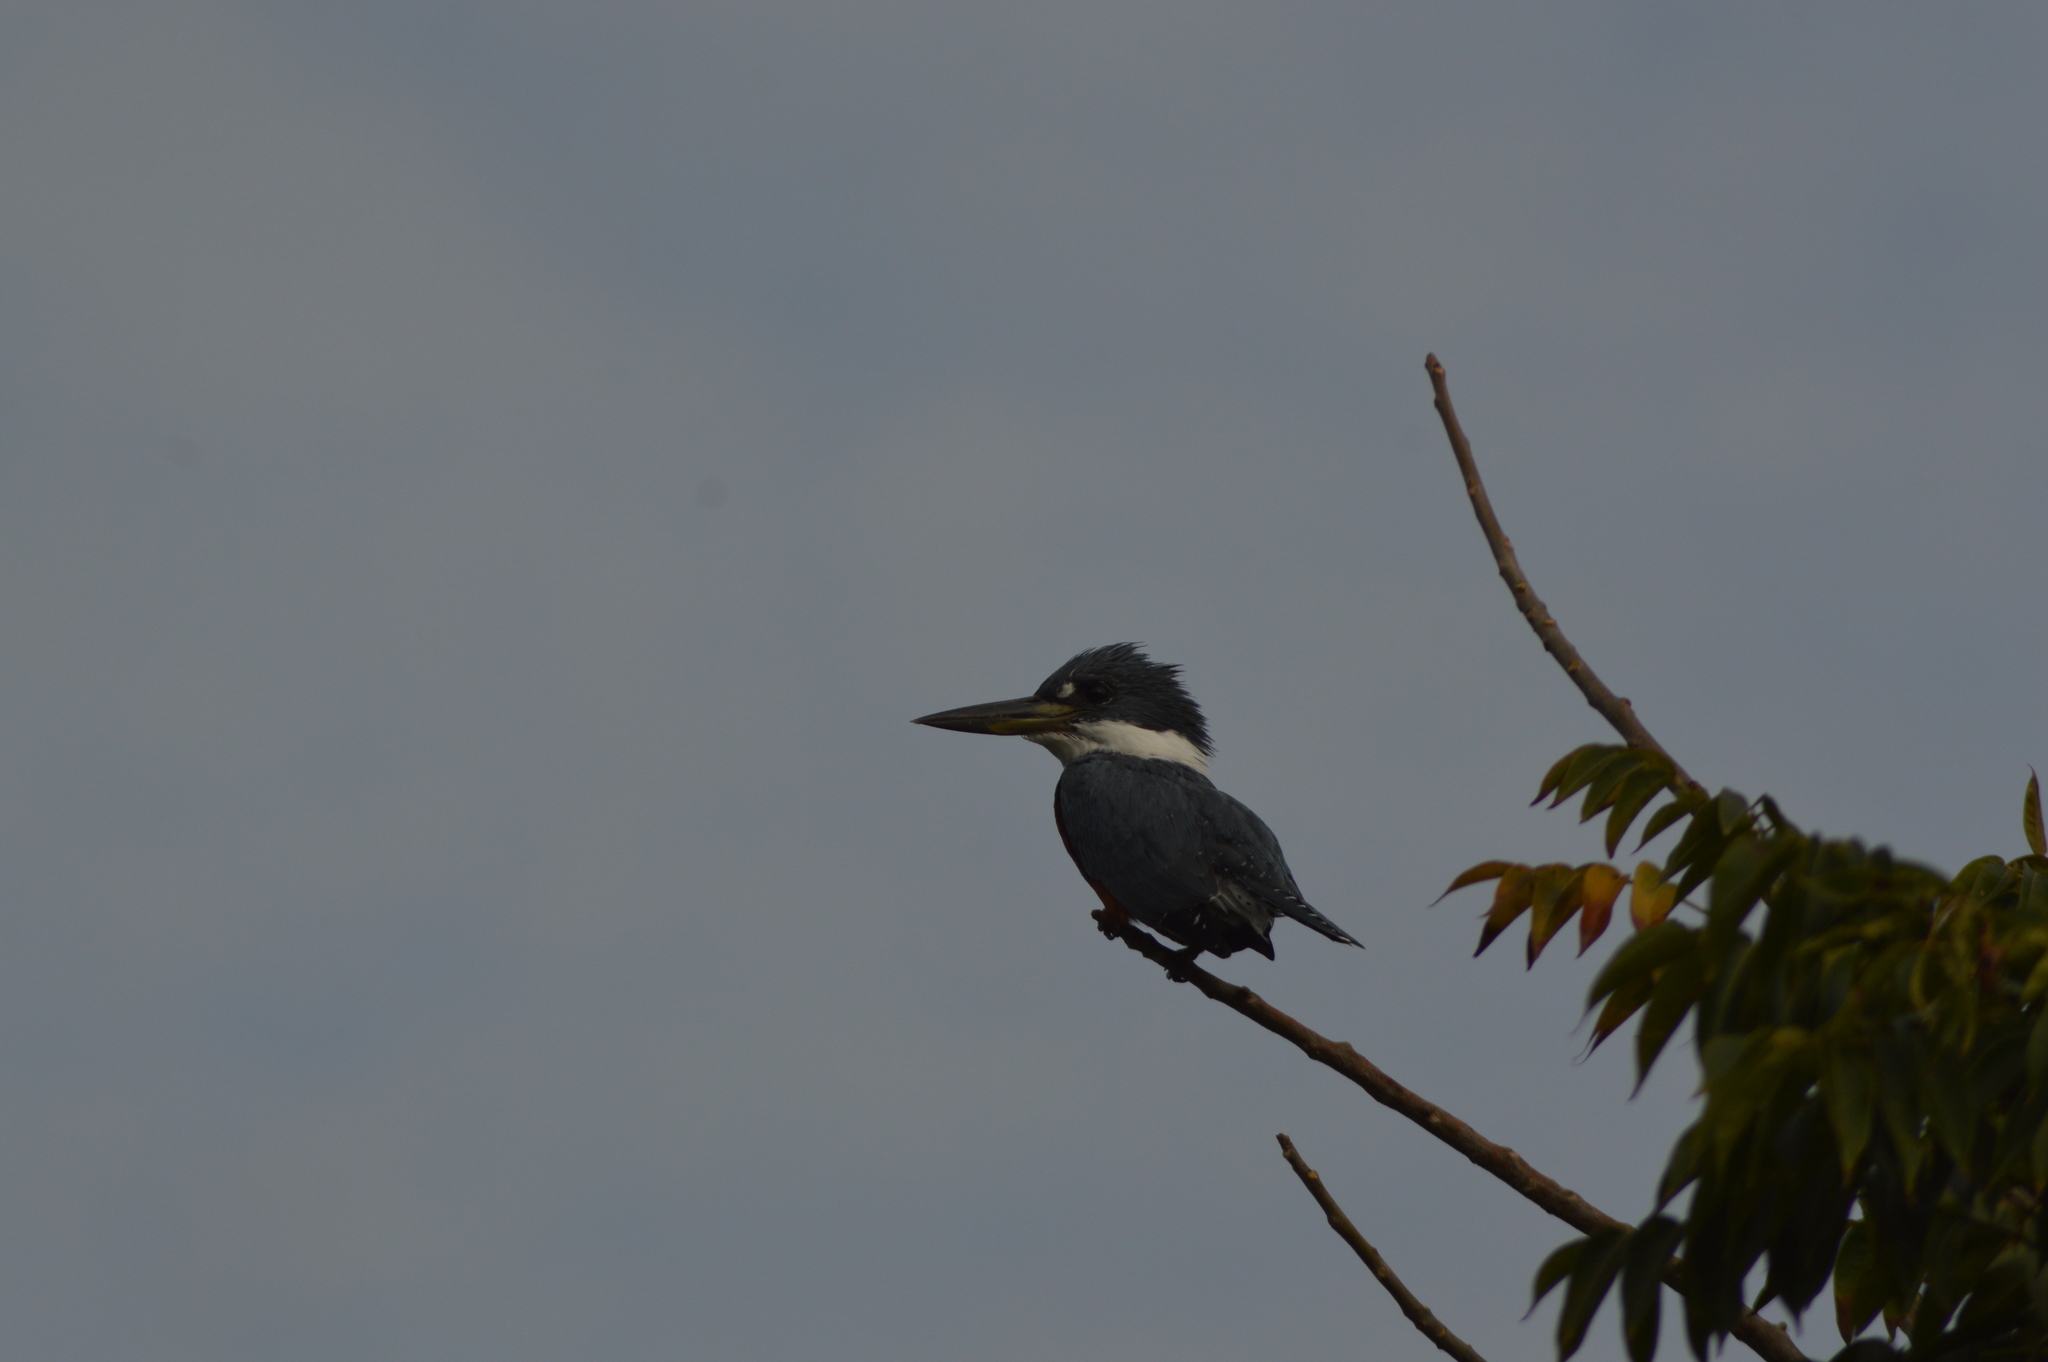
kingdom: Animalia
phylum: Chordata
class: Aves
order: Coraciiformes
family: Alcedinidae
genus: Megaceryle
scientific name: Megaceryle torquata
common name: Ringed kingfisher
